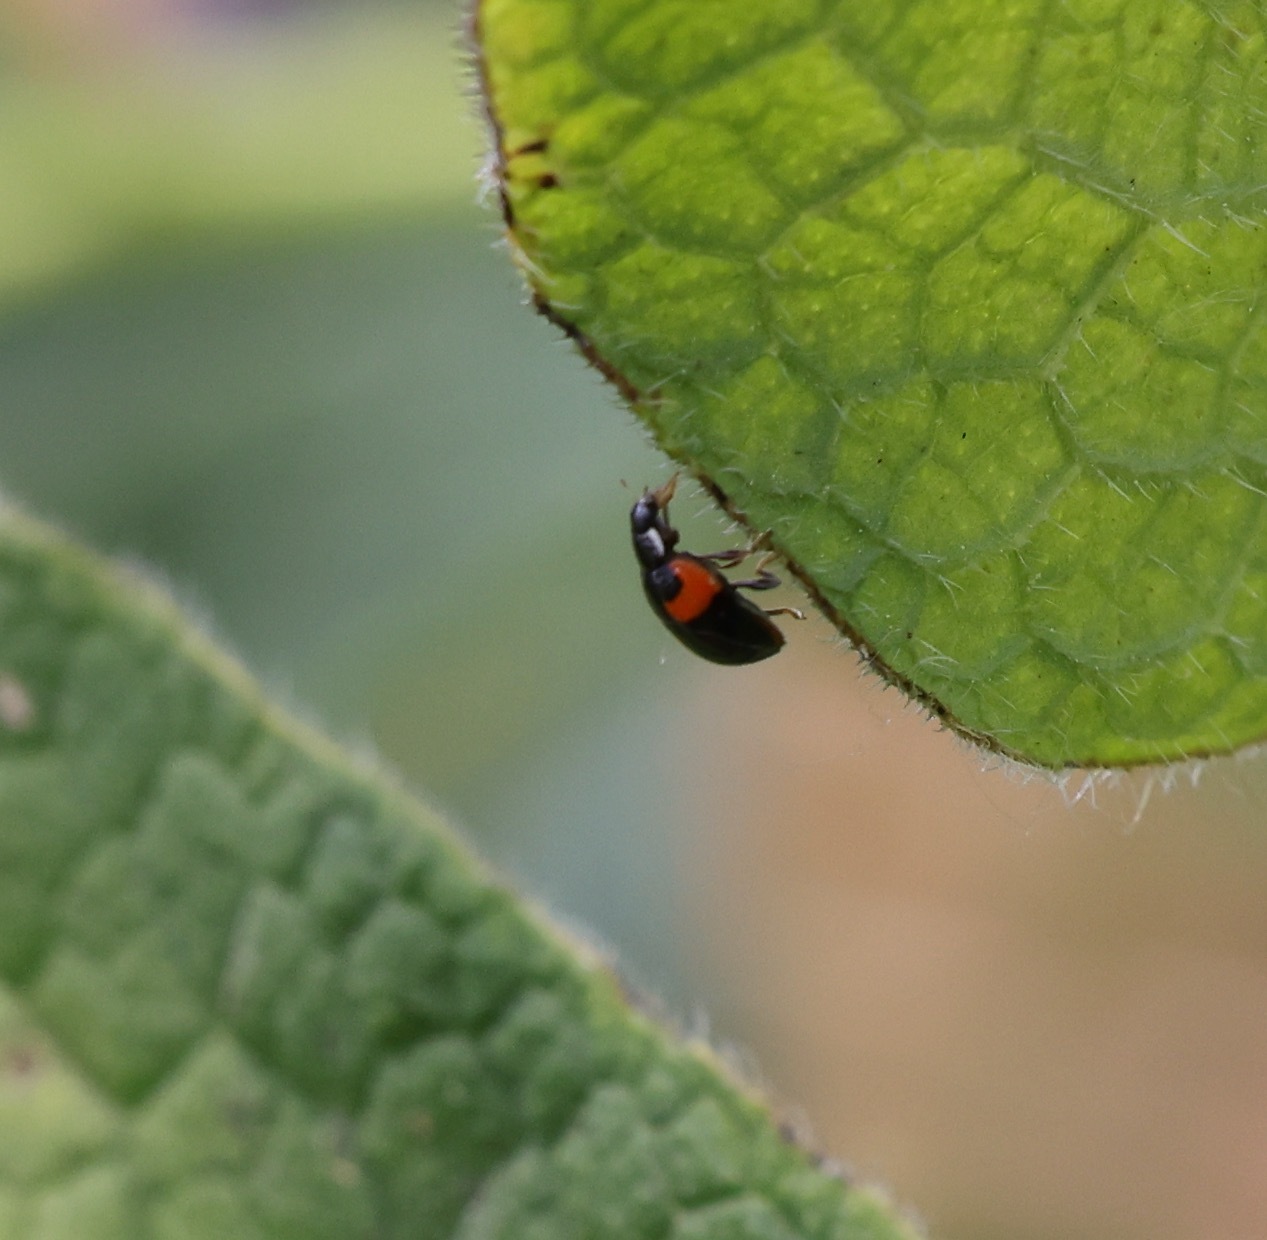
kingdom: Animalia
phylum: Arthropoda
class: Insecta
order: Coleoptera
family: Coccinellidae
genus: Adalia
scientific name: Adalia decempunctata
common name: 10-spot ladybird
